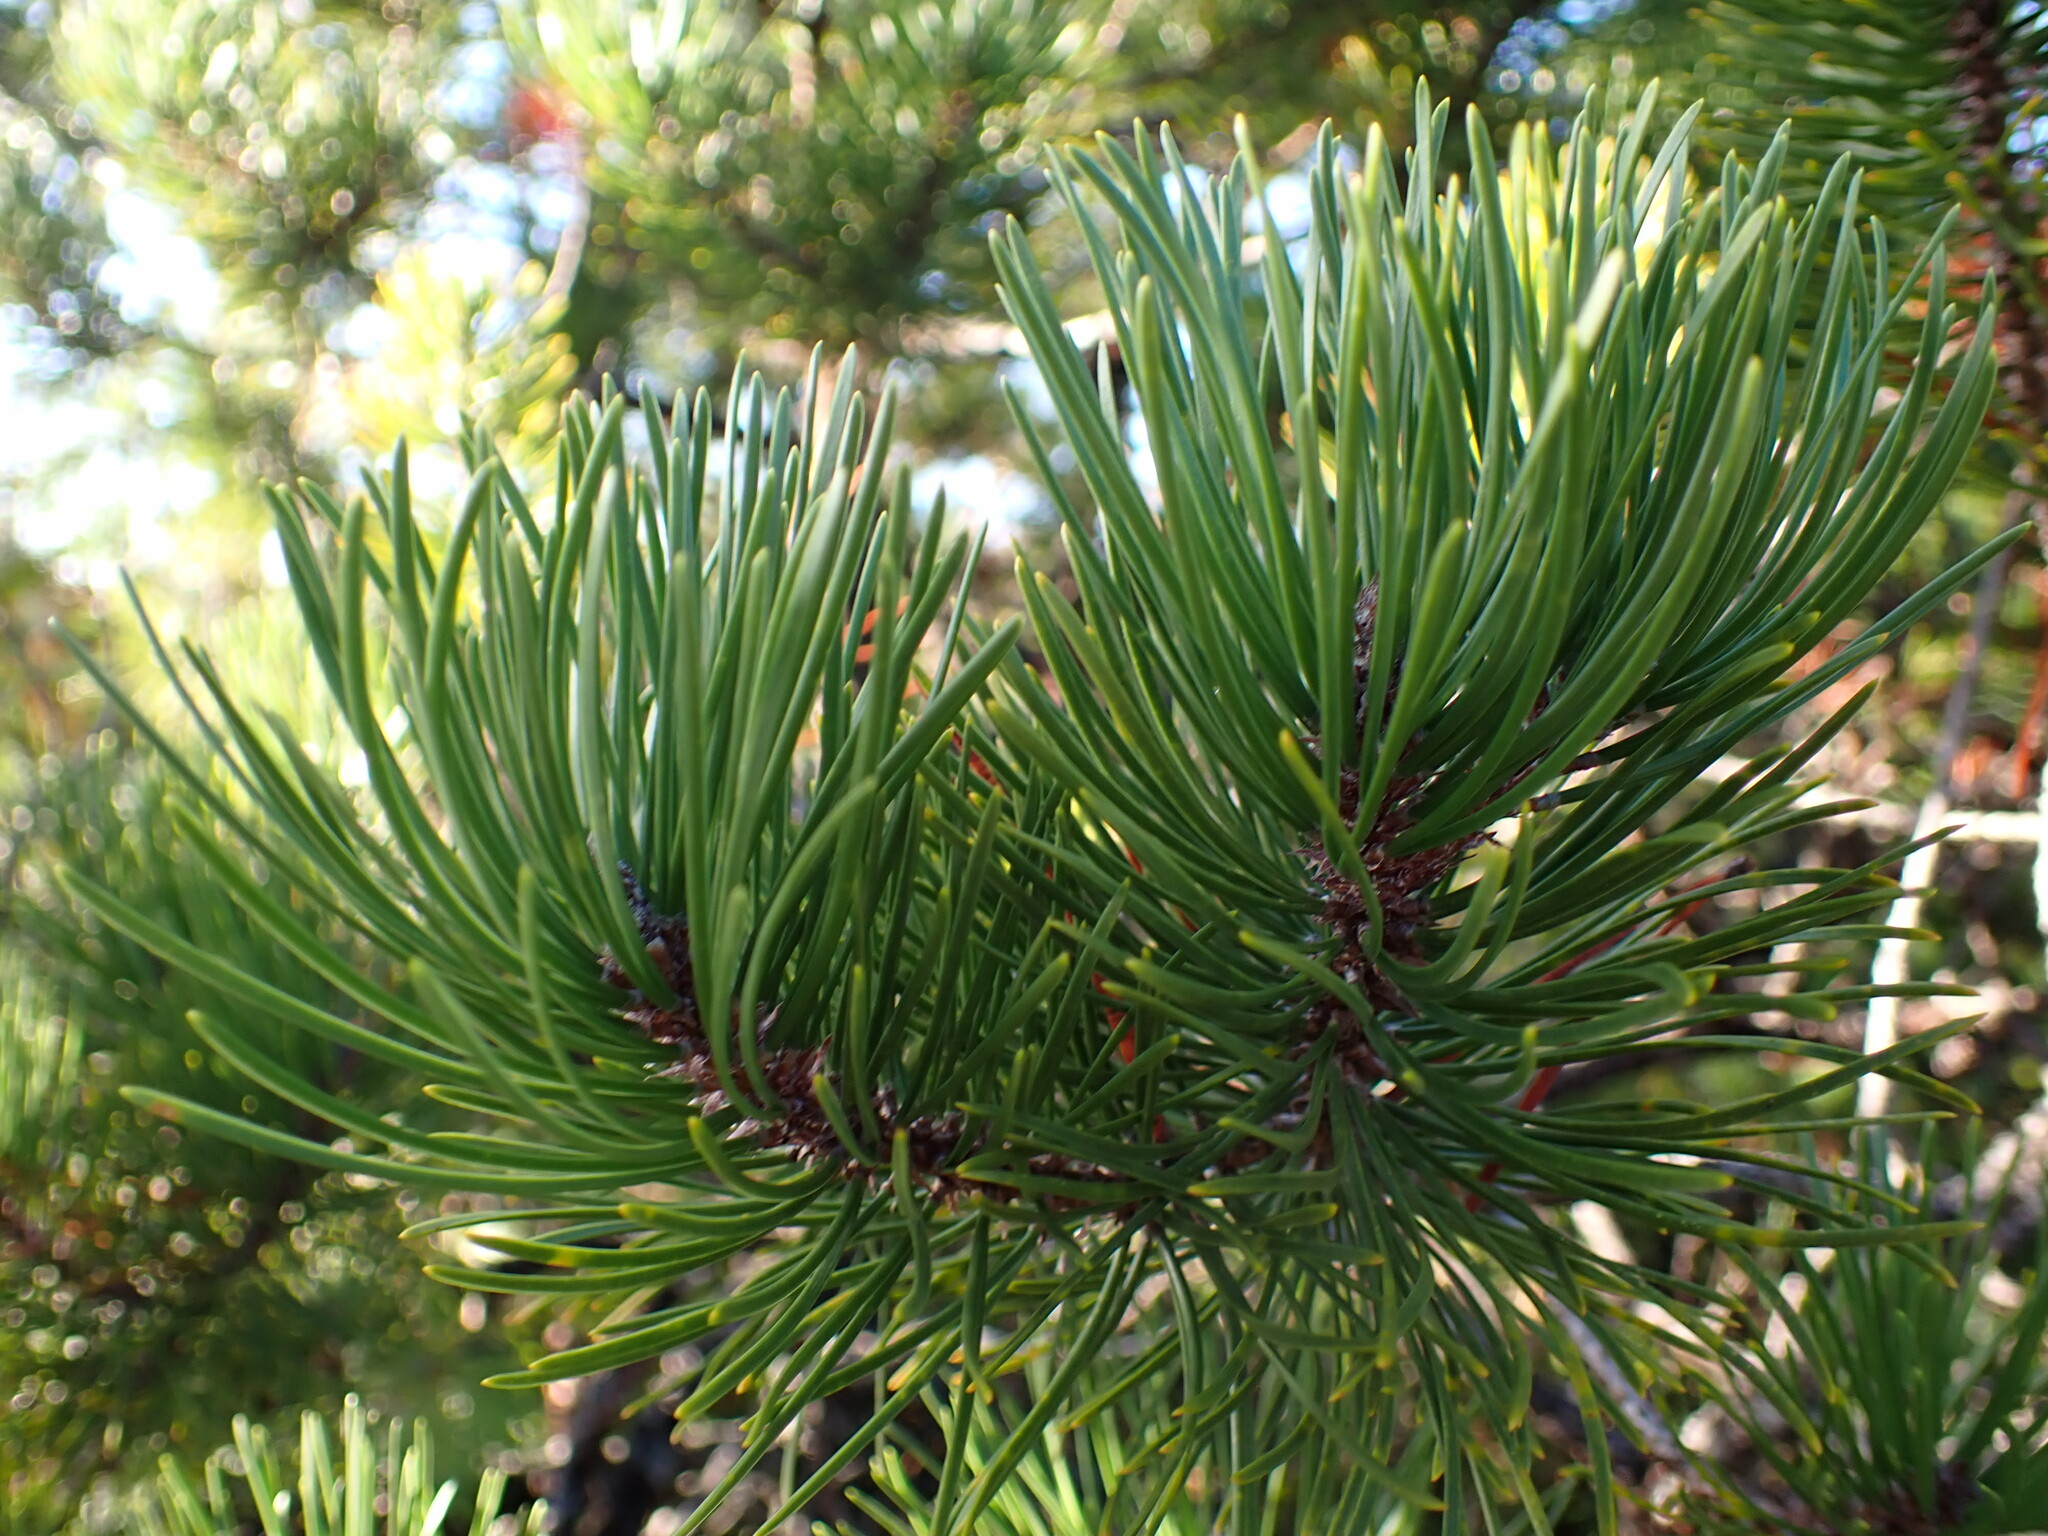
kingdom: Plantae
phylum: Tracheophyta
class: Pinopsida
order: Pinales
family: Pinaceae
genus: Pinus
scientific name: Pinus contorta
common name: Lodgepole pine
